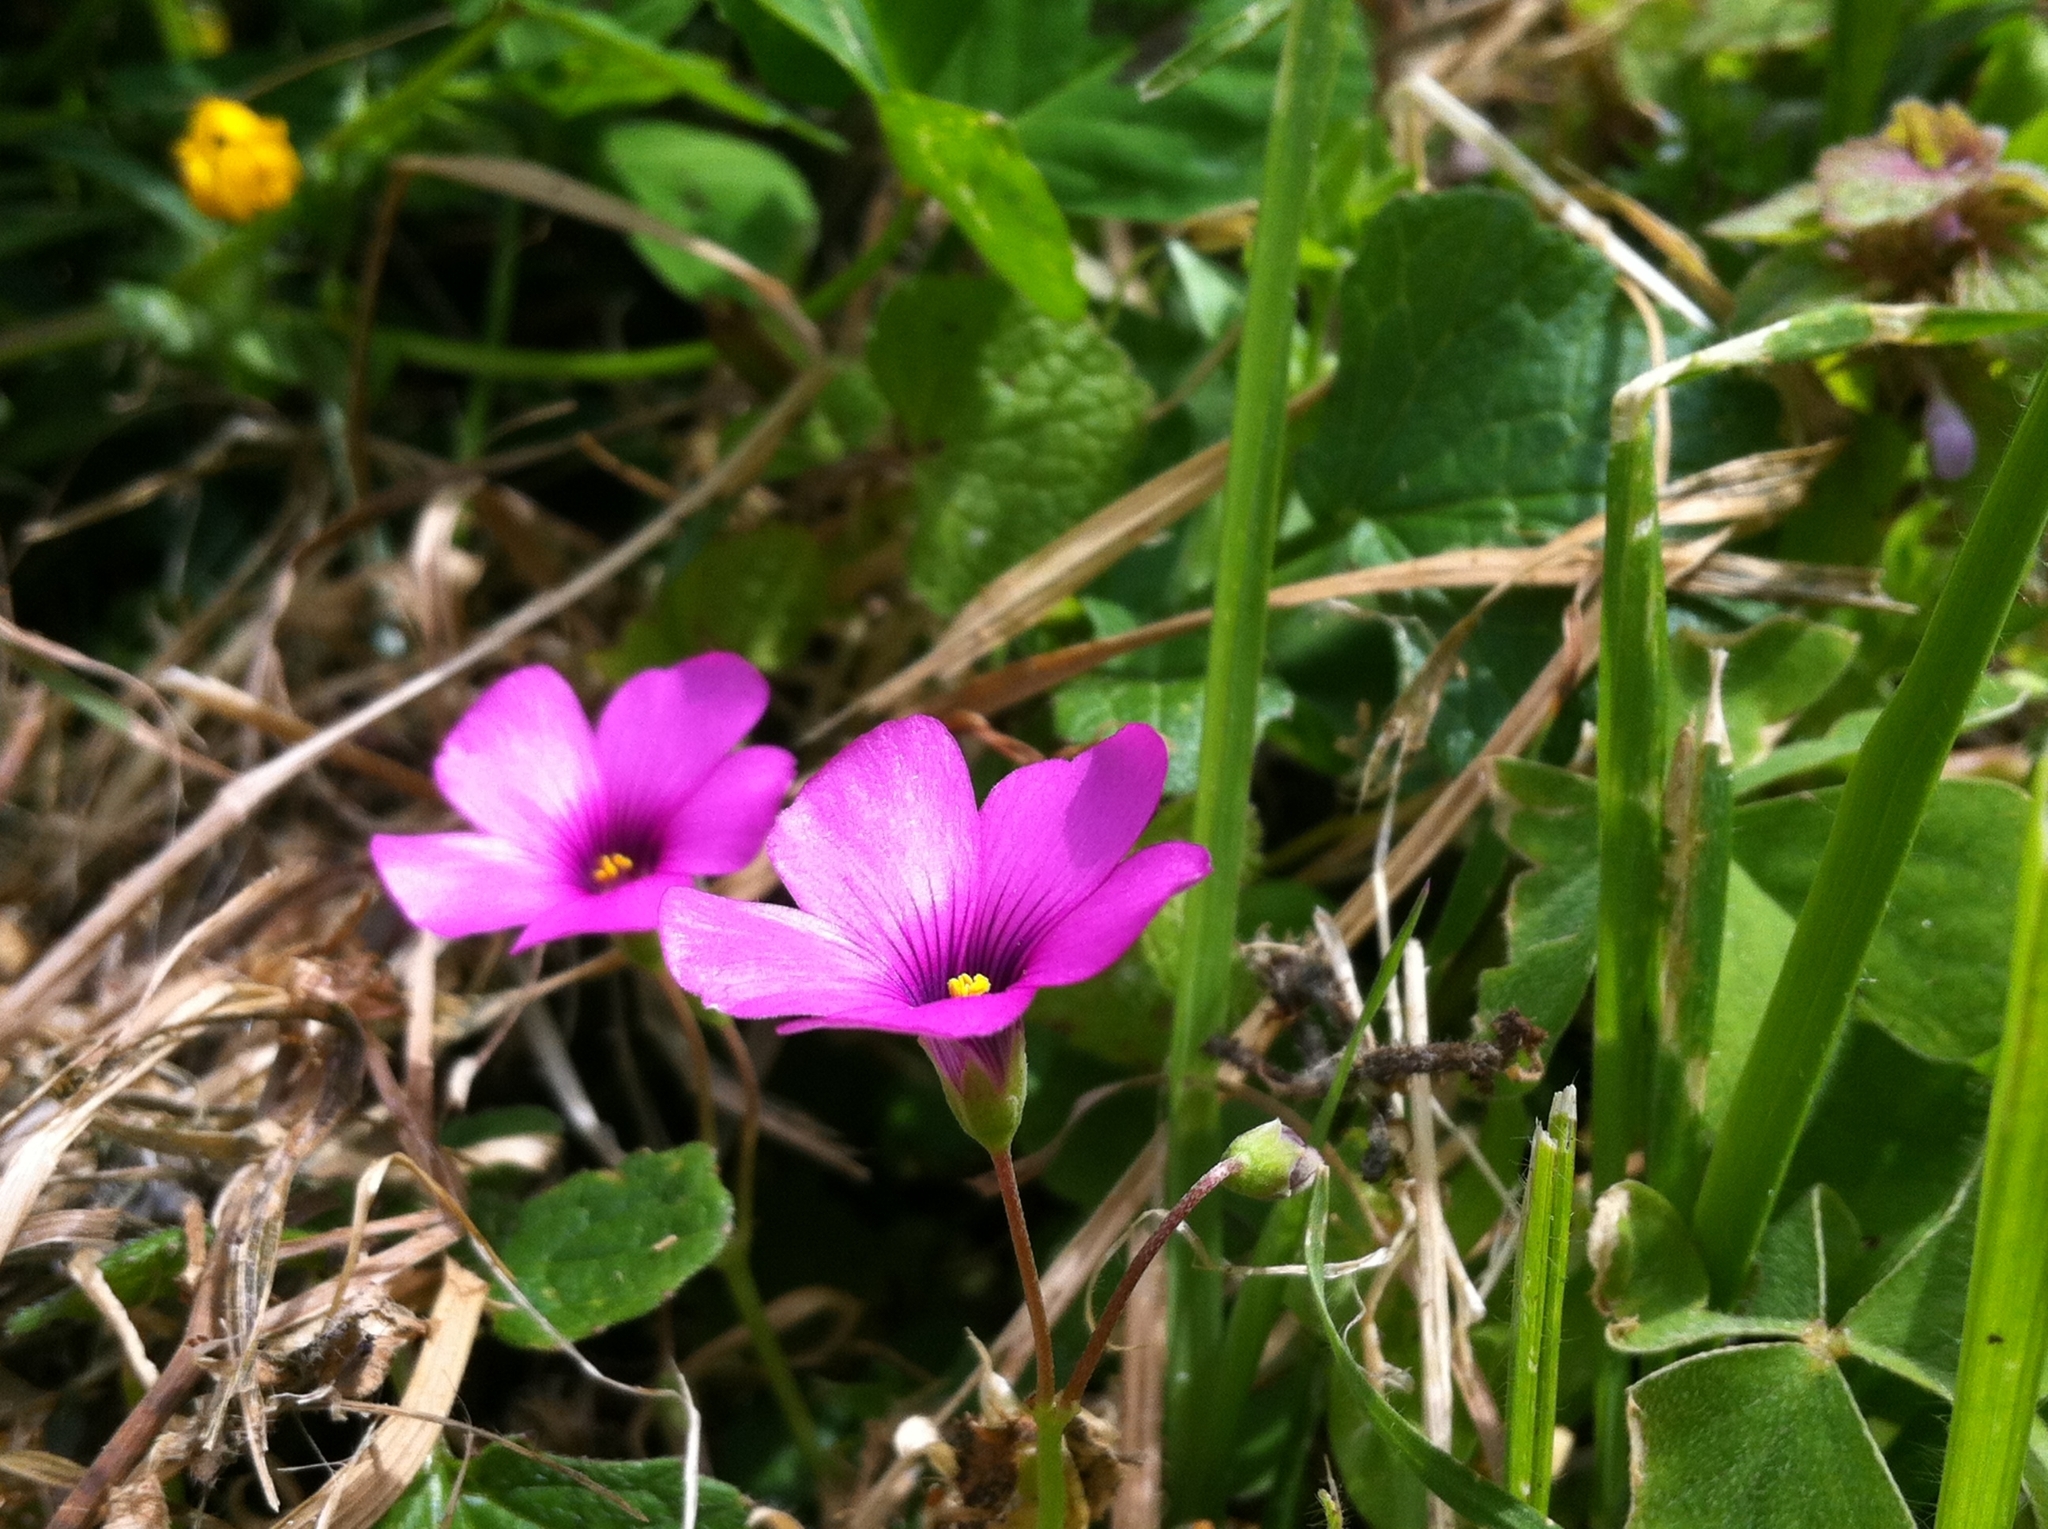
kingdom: Plantae
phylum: Tracheophyta
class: Magnoliopsida
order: Oxalidales
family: Oxalidaceae
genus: Oxalis
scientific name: Oxalis articulata
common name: Pink-sorrel
